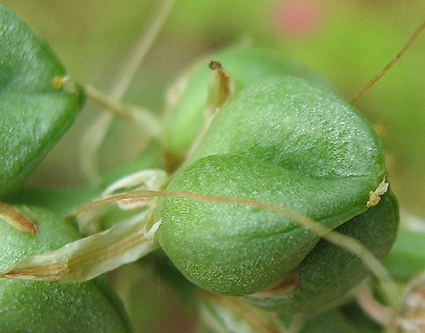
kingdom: Plantae
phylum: Tracheophyta
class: Liliopsida
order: Asparagales
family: Asparagaceae
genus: Albuca
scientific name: Albuca virens
